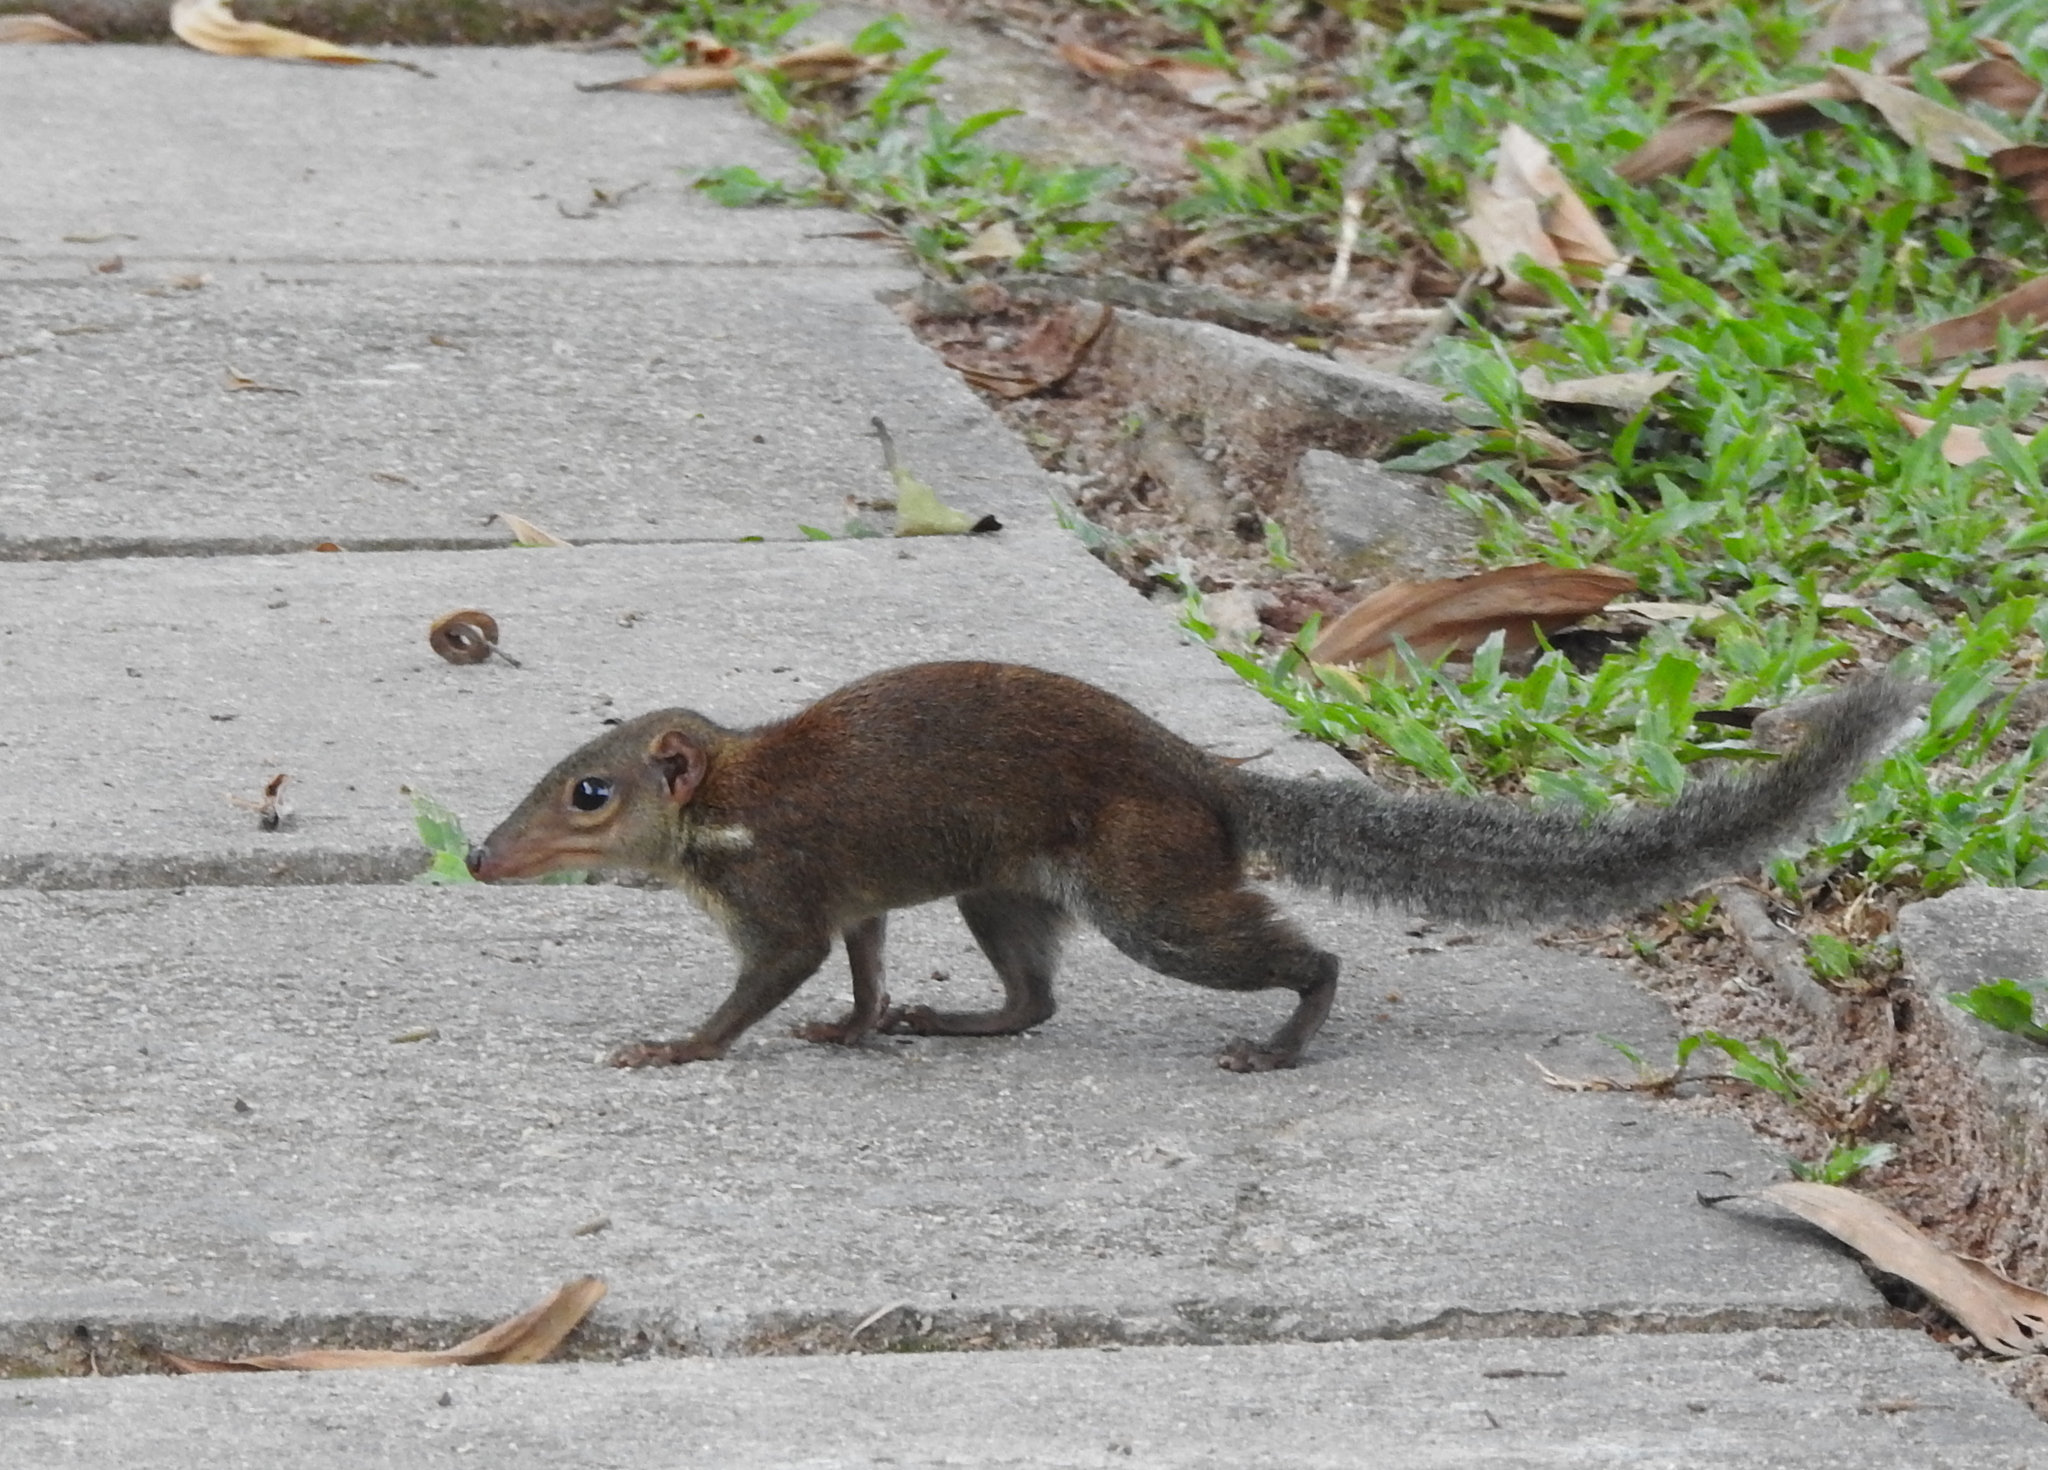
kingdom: Animalia
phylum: Chordata
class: Mammalia
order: Scandentia
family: Tupaiidae
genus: Tupaia
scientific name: Tupaia glis
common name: Common treeshrew
